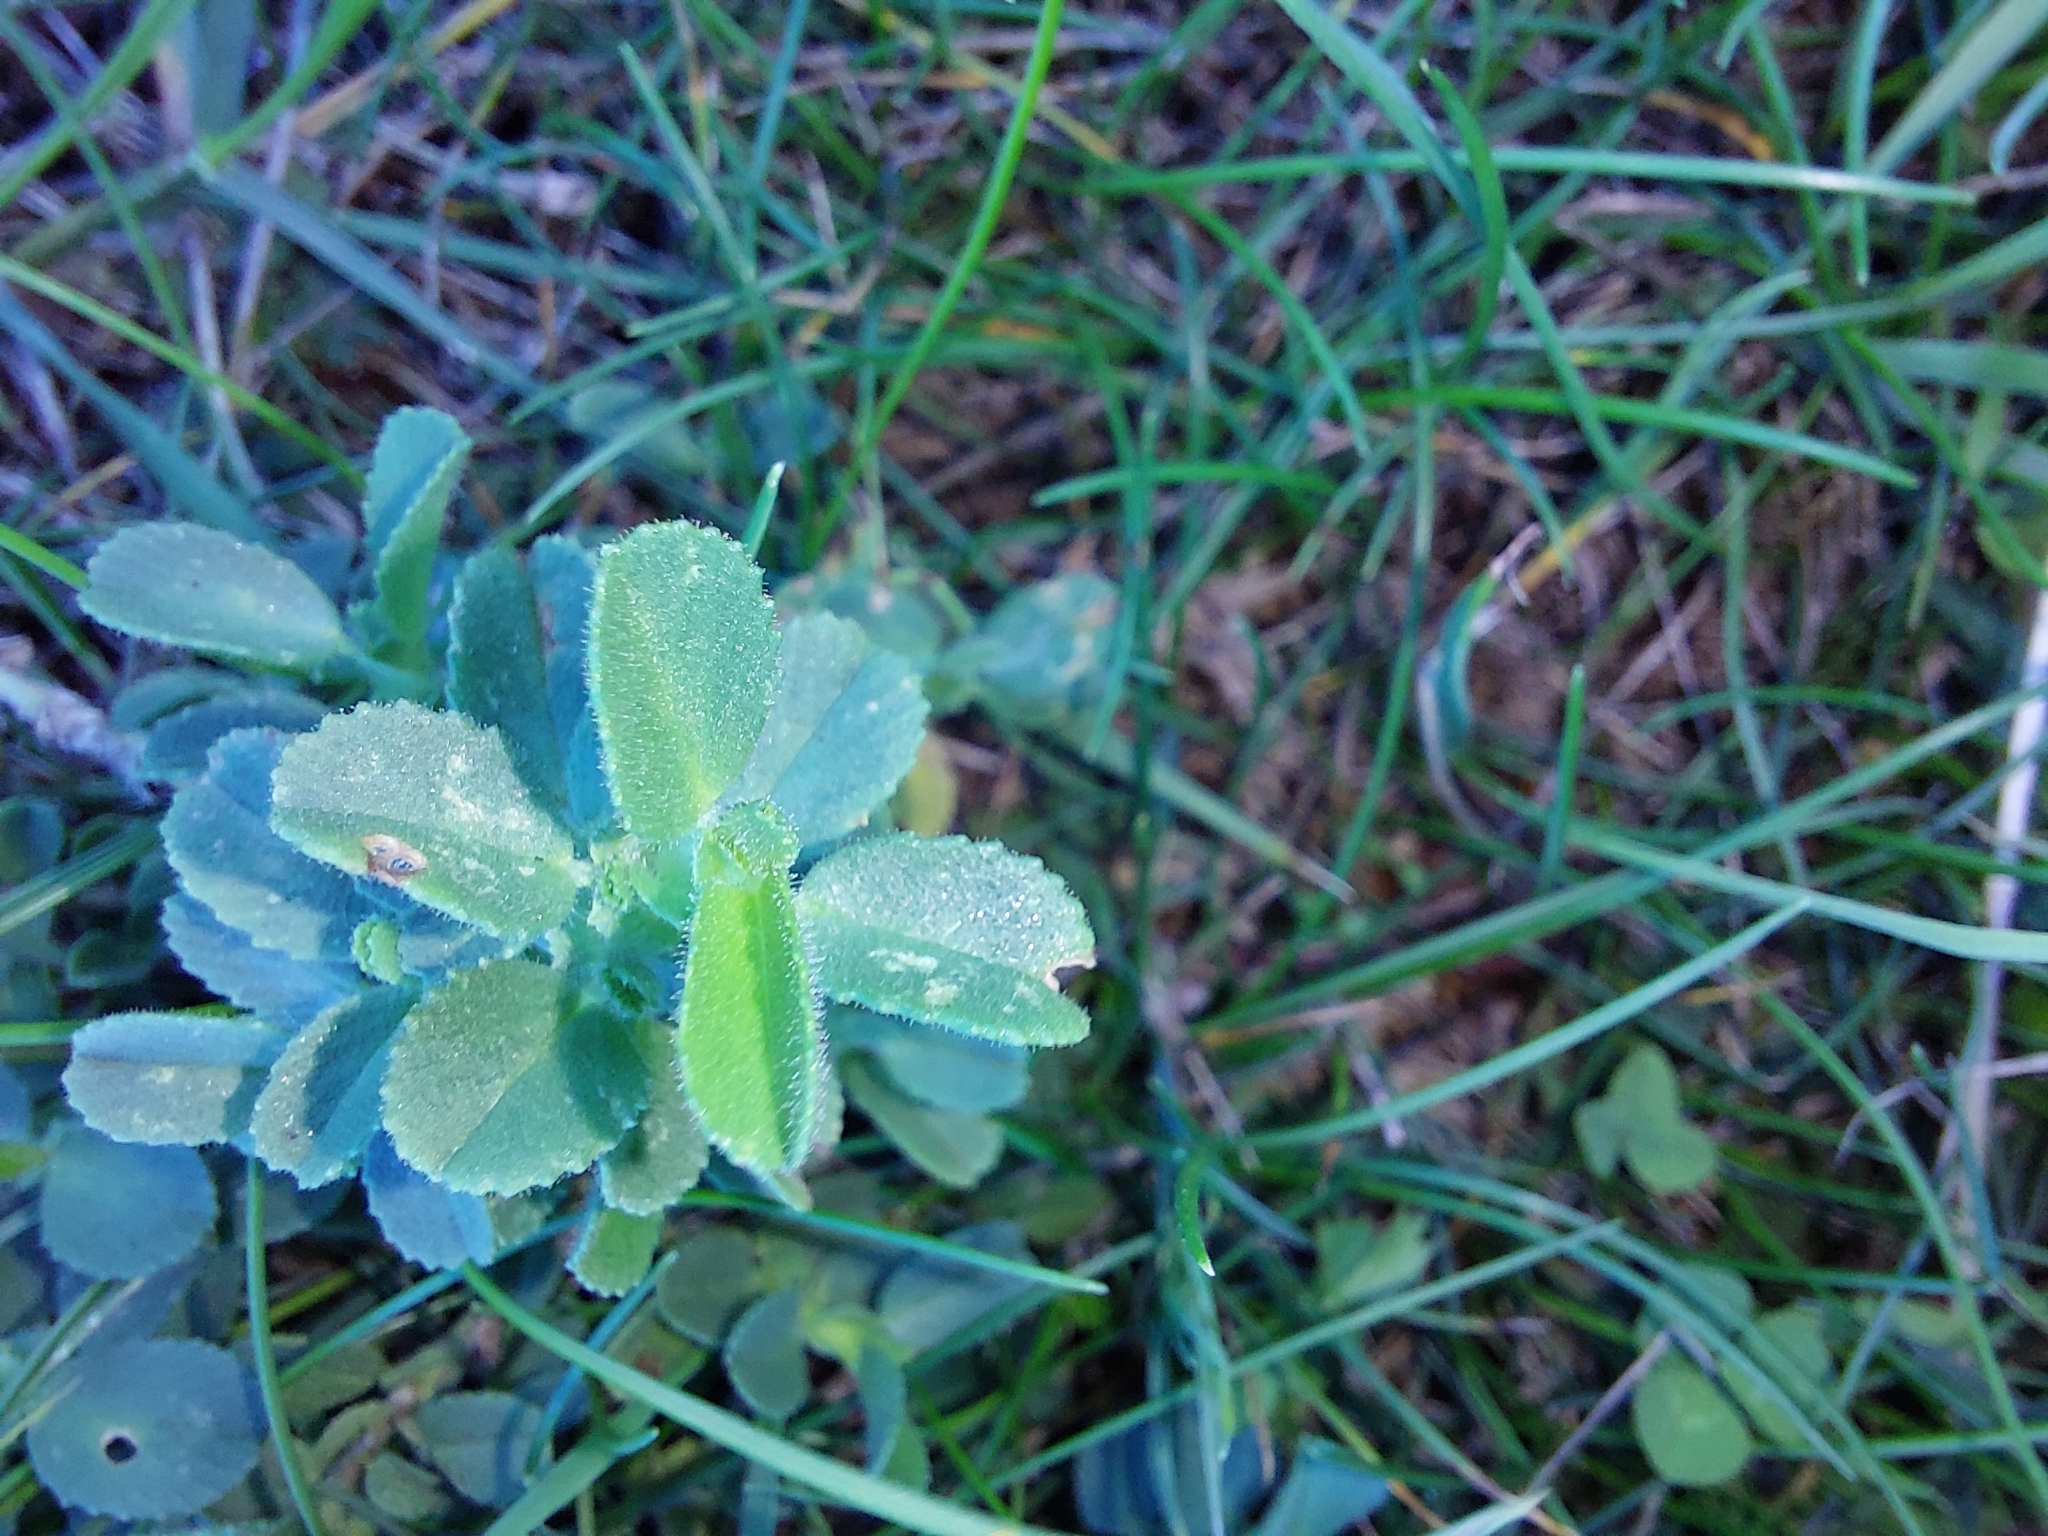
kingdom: Plantae
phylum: Tracheophyta
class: Magnoliopsida
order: Fabales
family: Fabaceae
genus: Ononis
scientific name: Ononis spinosa
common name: Spiny restharrow
